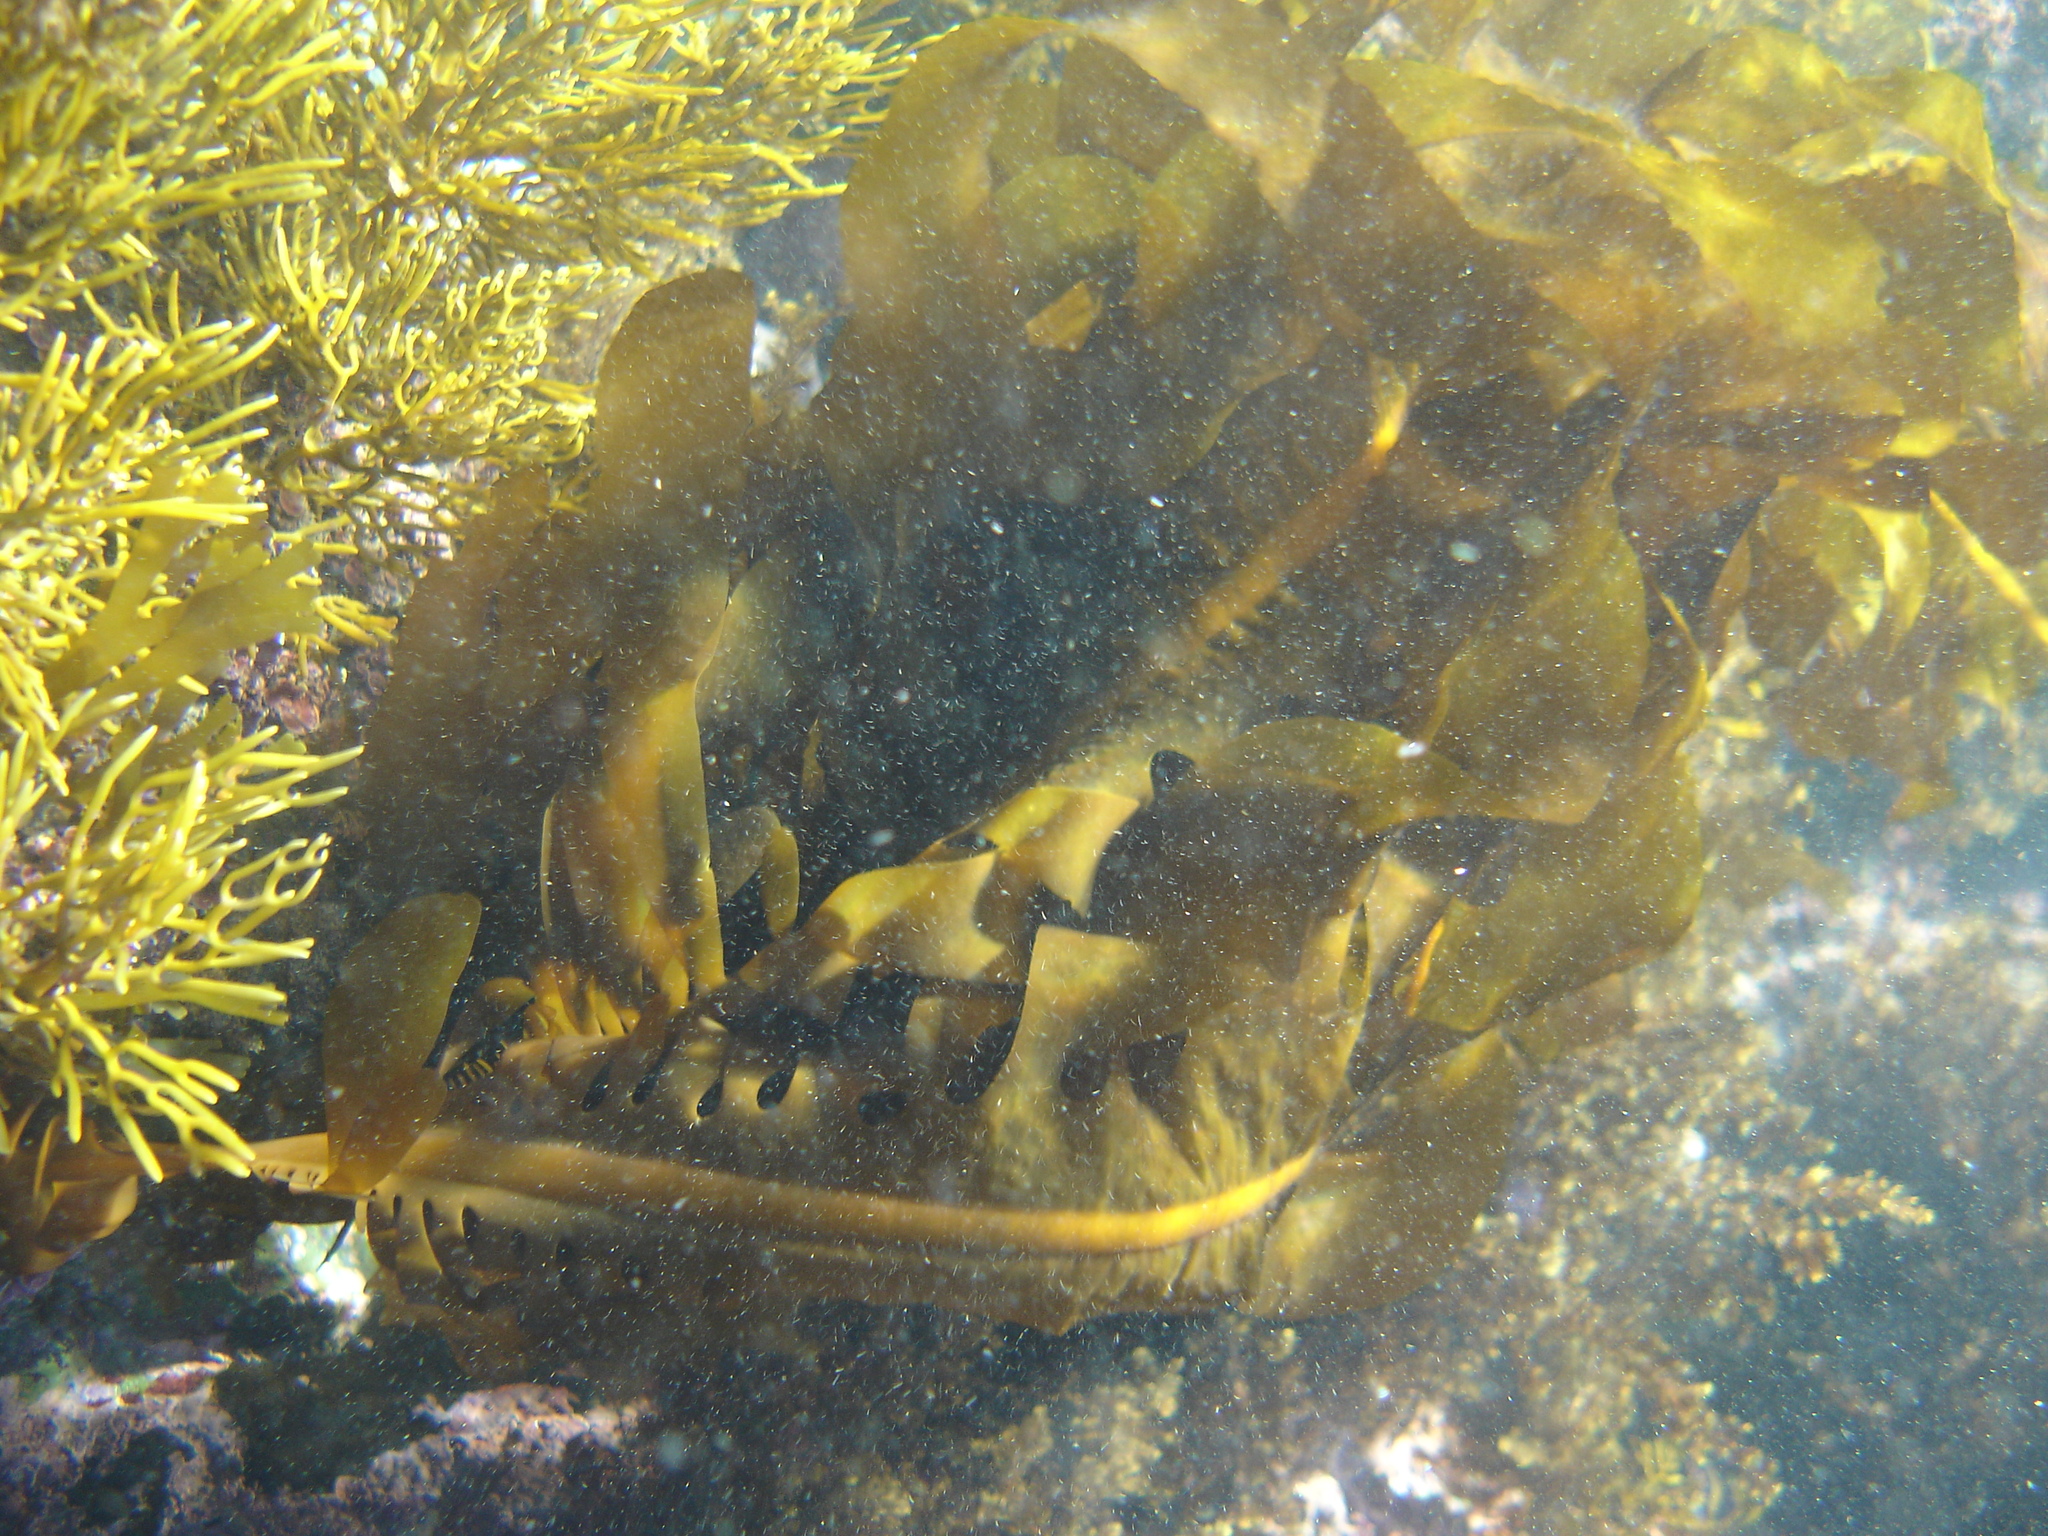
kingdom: Chromista
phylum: Ochrophyta
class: Phaeophyceae
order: Laminariales
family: Alariaceae
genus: Undaria
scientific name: Undaria pinnatifida
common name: Asian kelp
